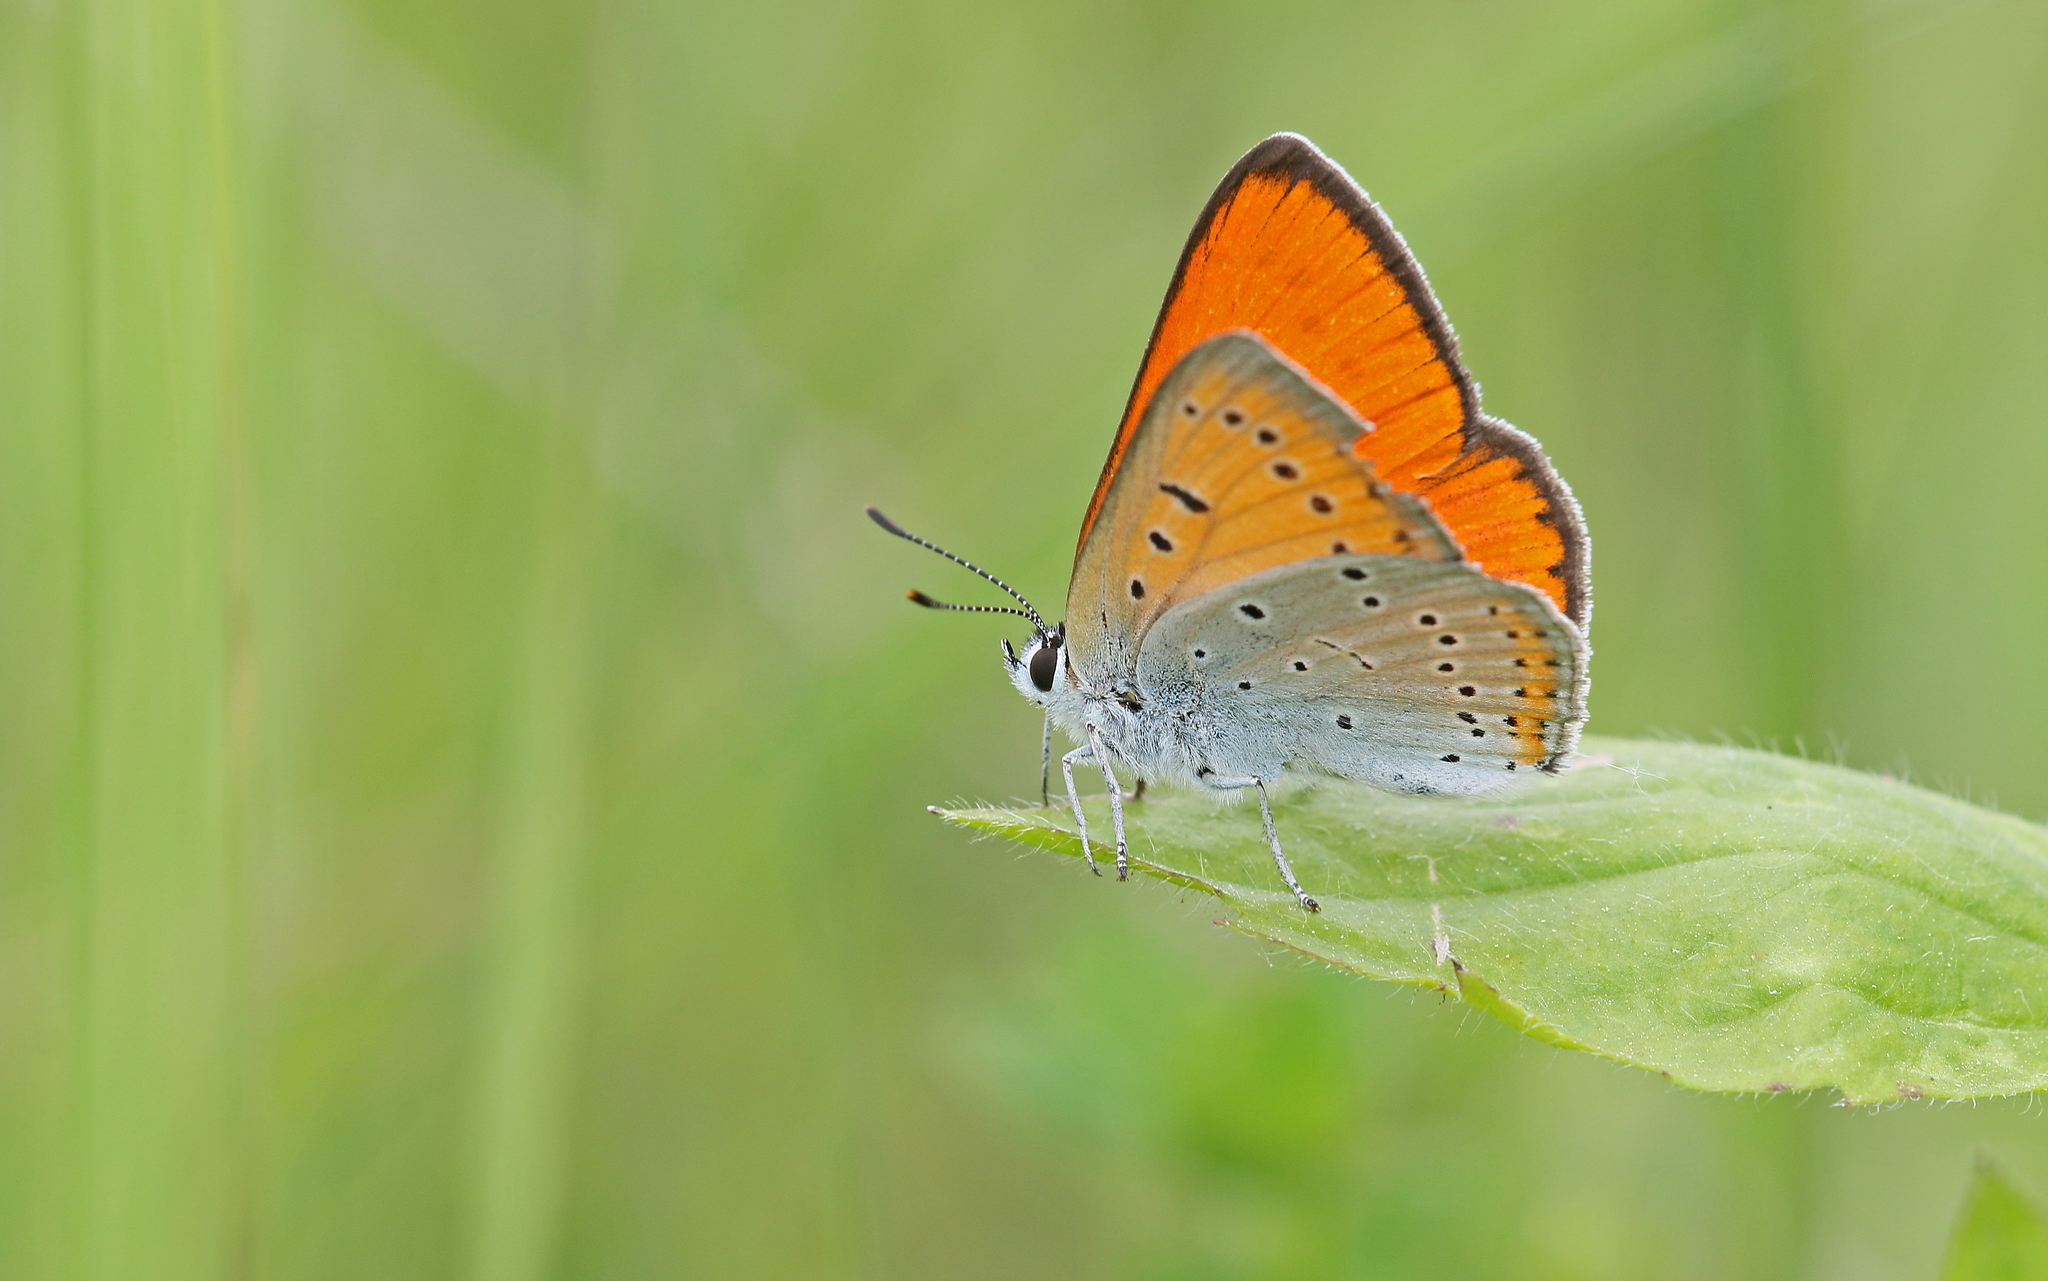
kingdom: Animalia
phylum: Arthropoda
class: Insecta
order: Lepidoptera
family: Lycaenidae
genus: Lycaena
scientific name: Lycaena dispar
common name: Large copper
